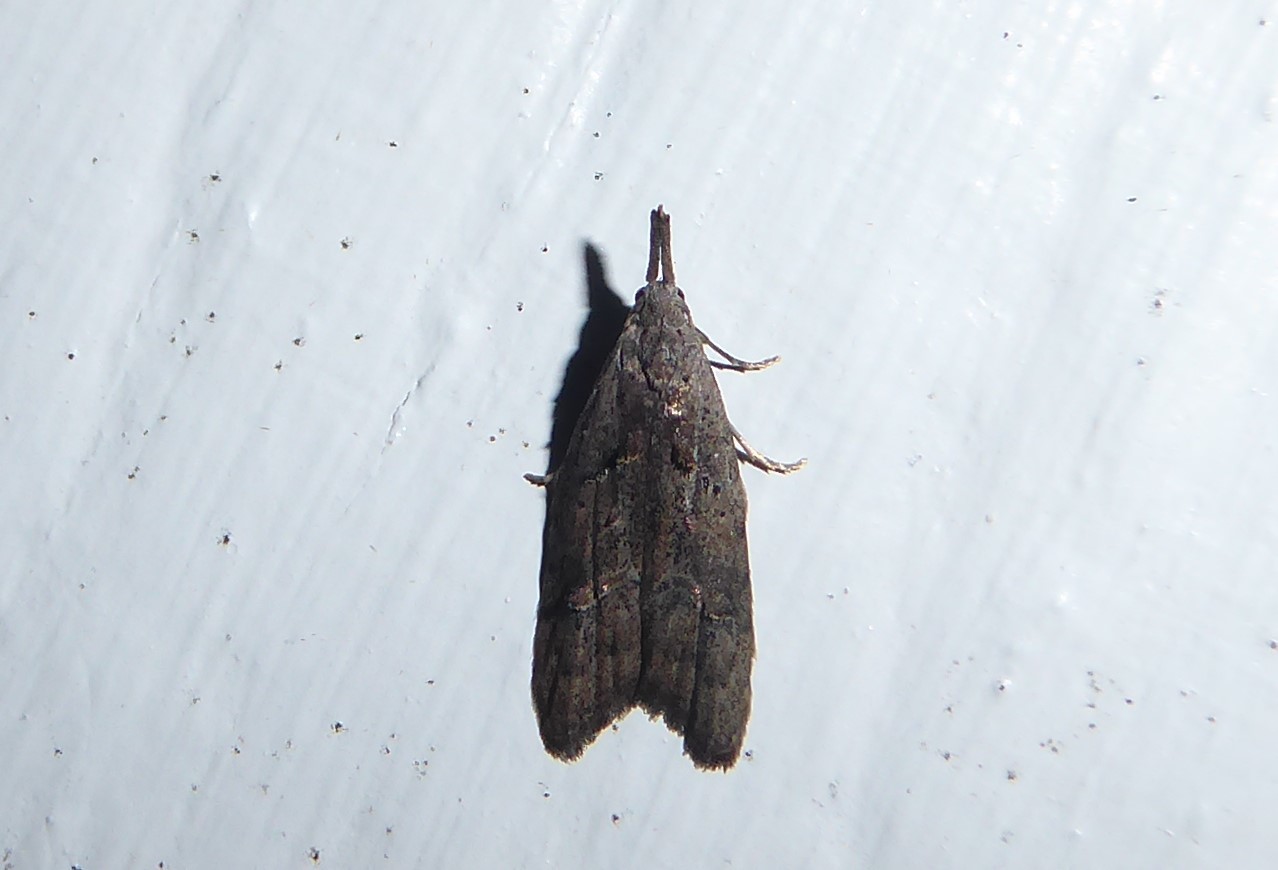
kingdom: Animalia
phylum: Arthropoda
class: Insecta
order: Lepidoptera
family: Carposinidae
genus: Carposina
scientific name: Carposina rubophaga
